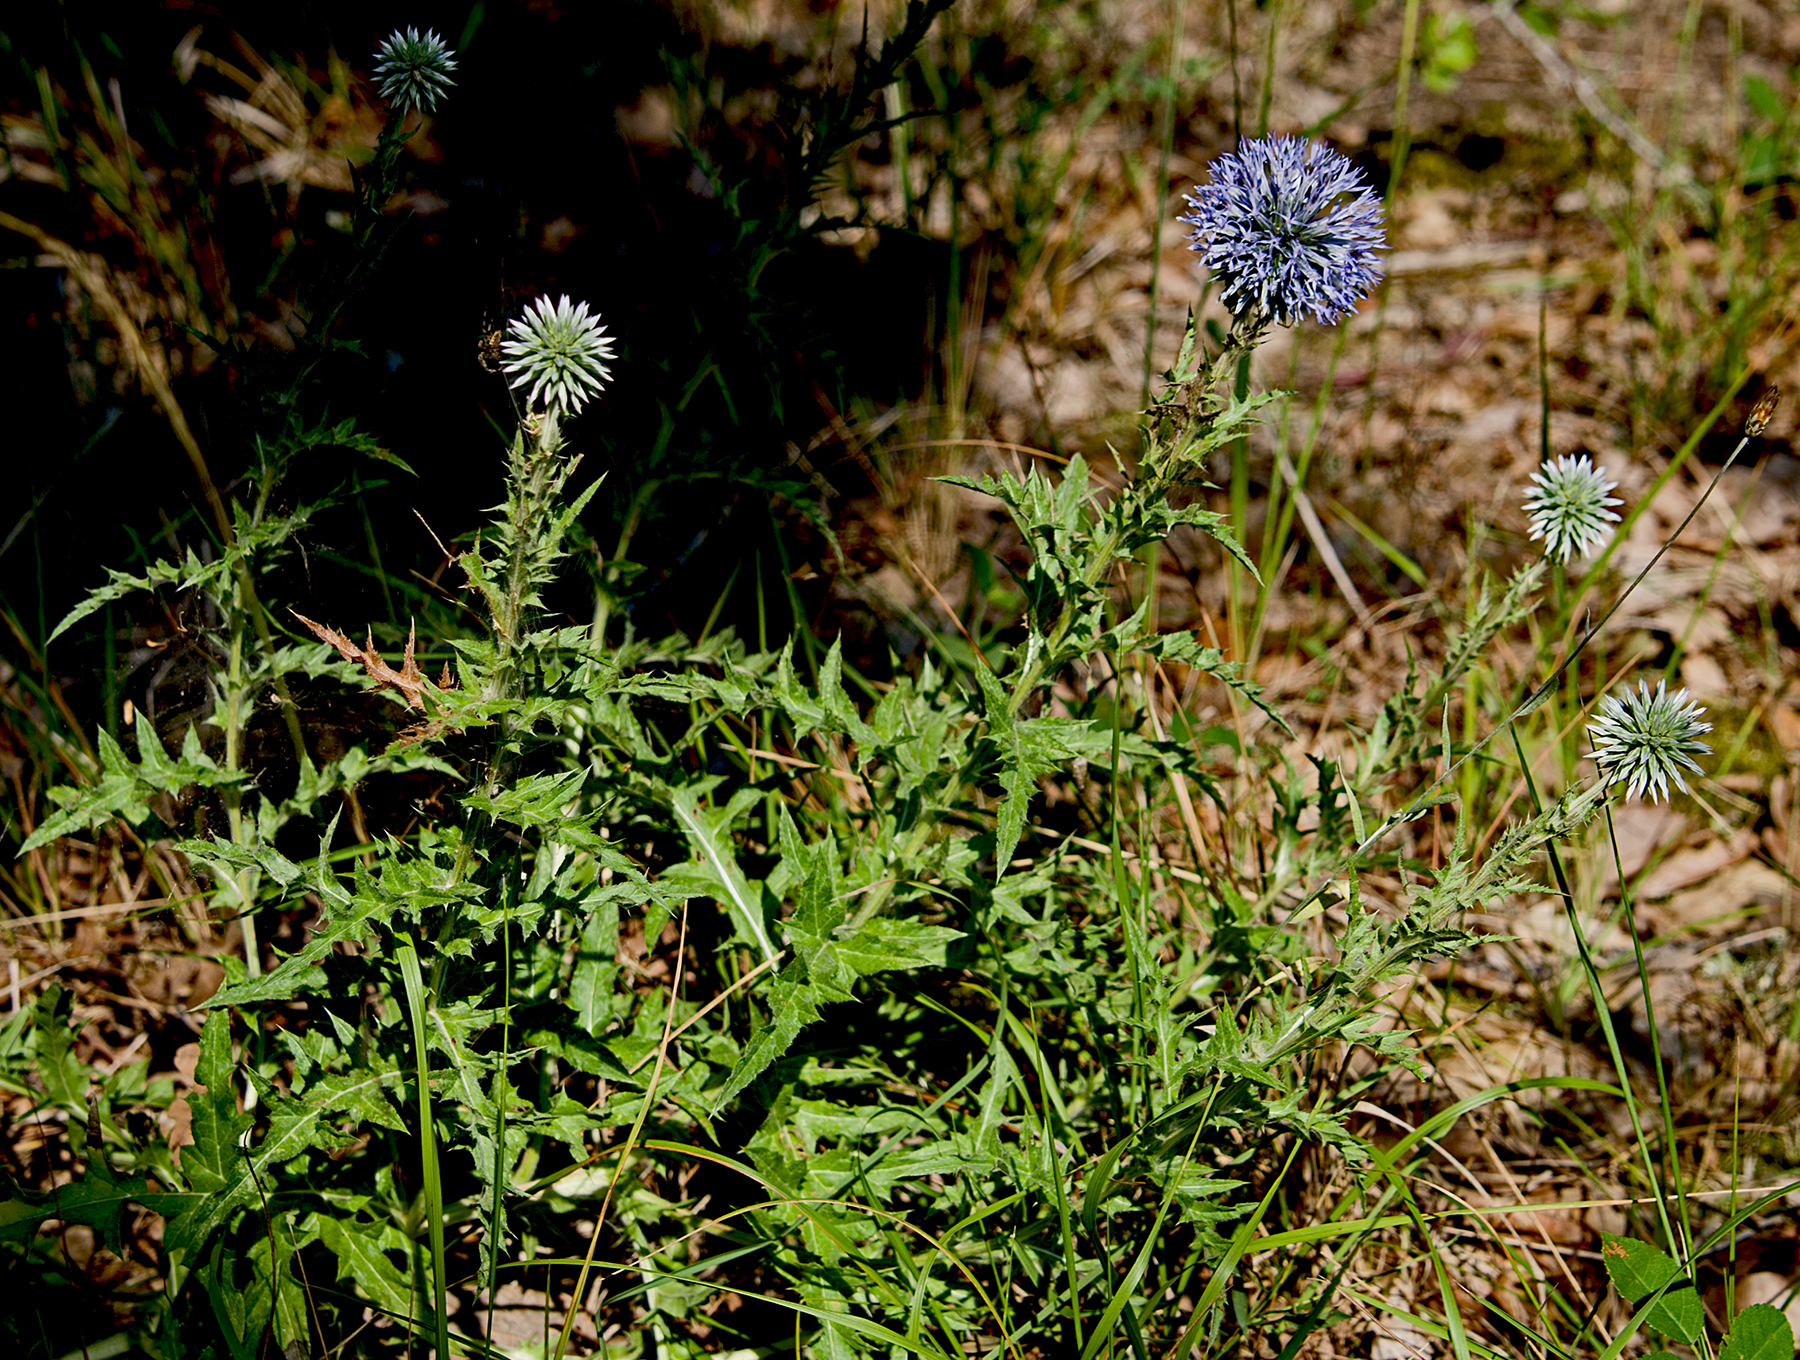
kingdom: Plantae
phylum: Tracheophyta
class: Magnoliopsida
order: Asterales
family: Asteraceae
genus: Echinops
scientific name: Echinops microcephalus
